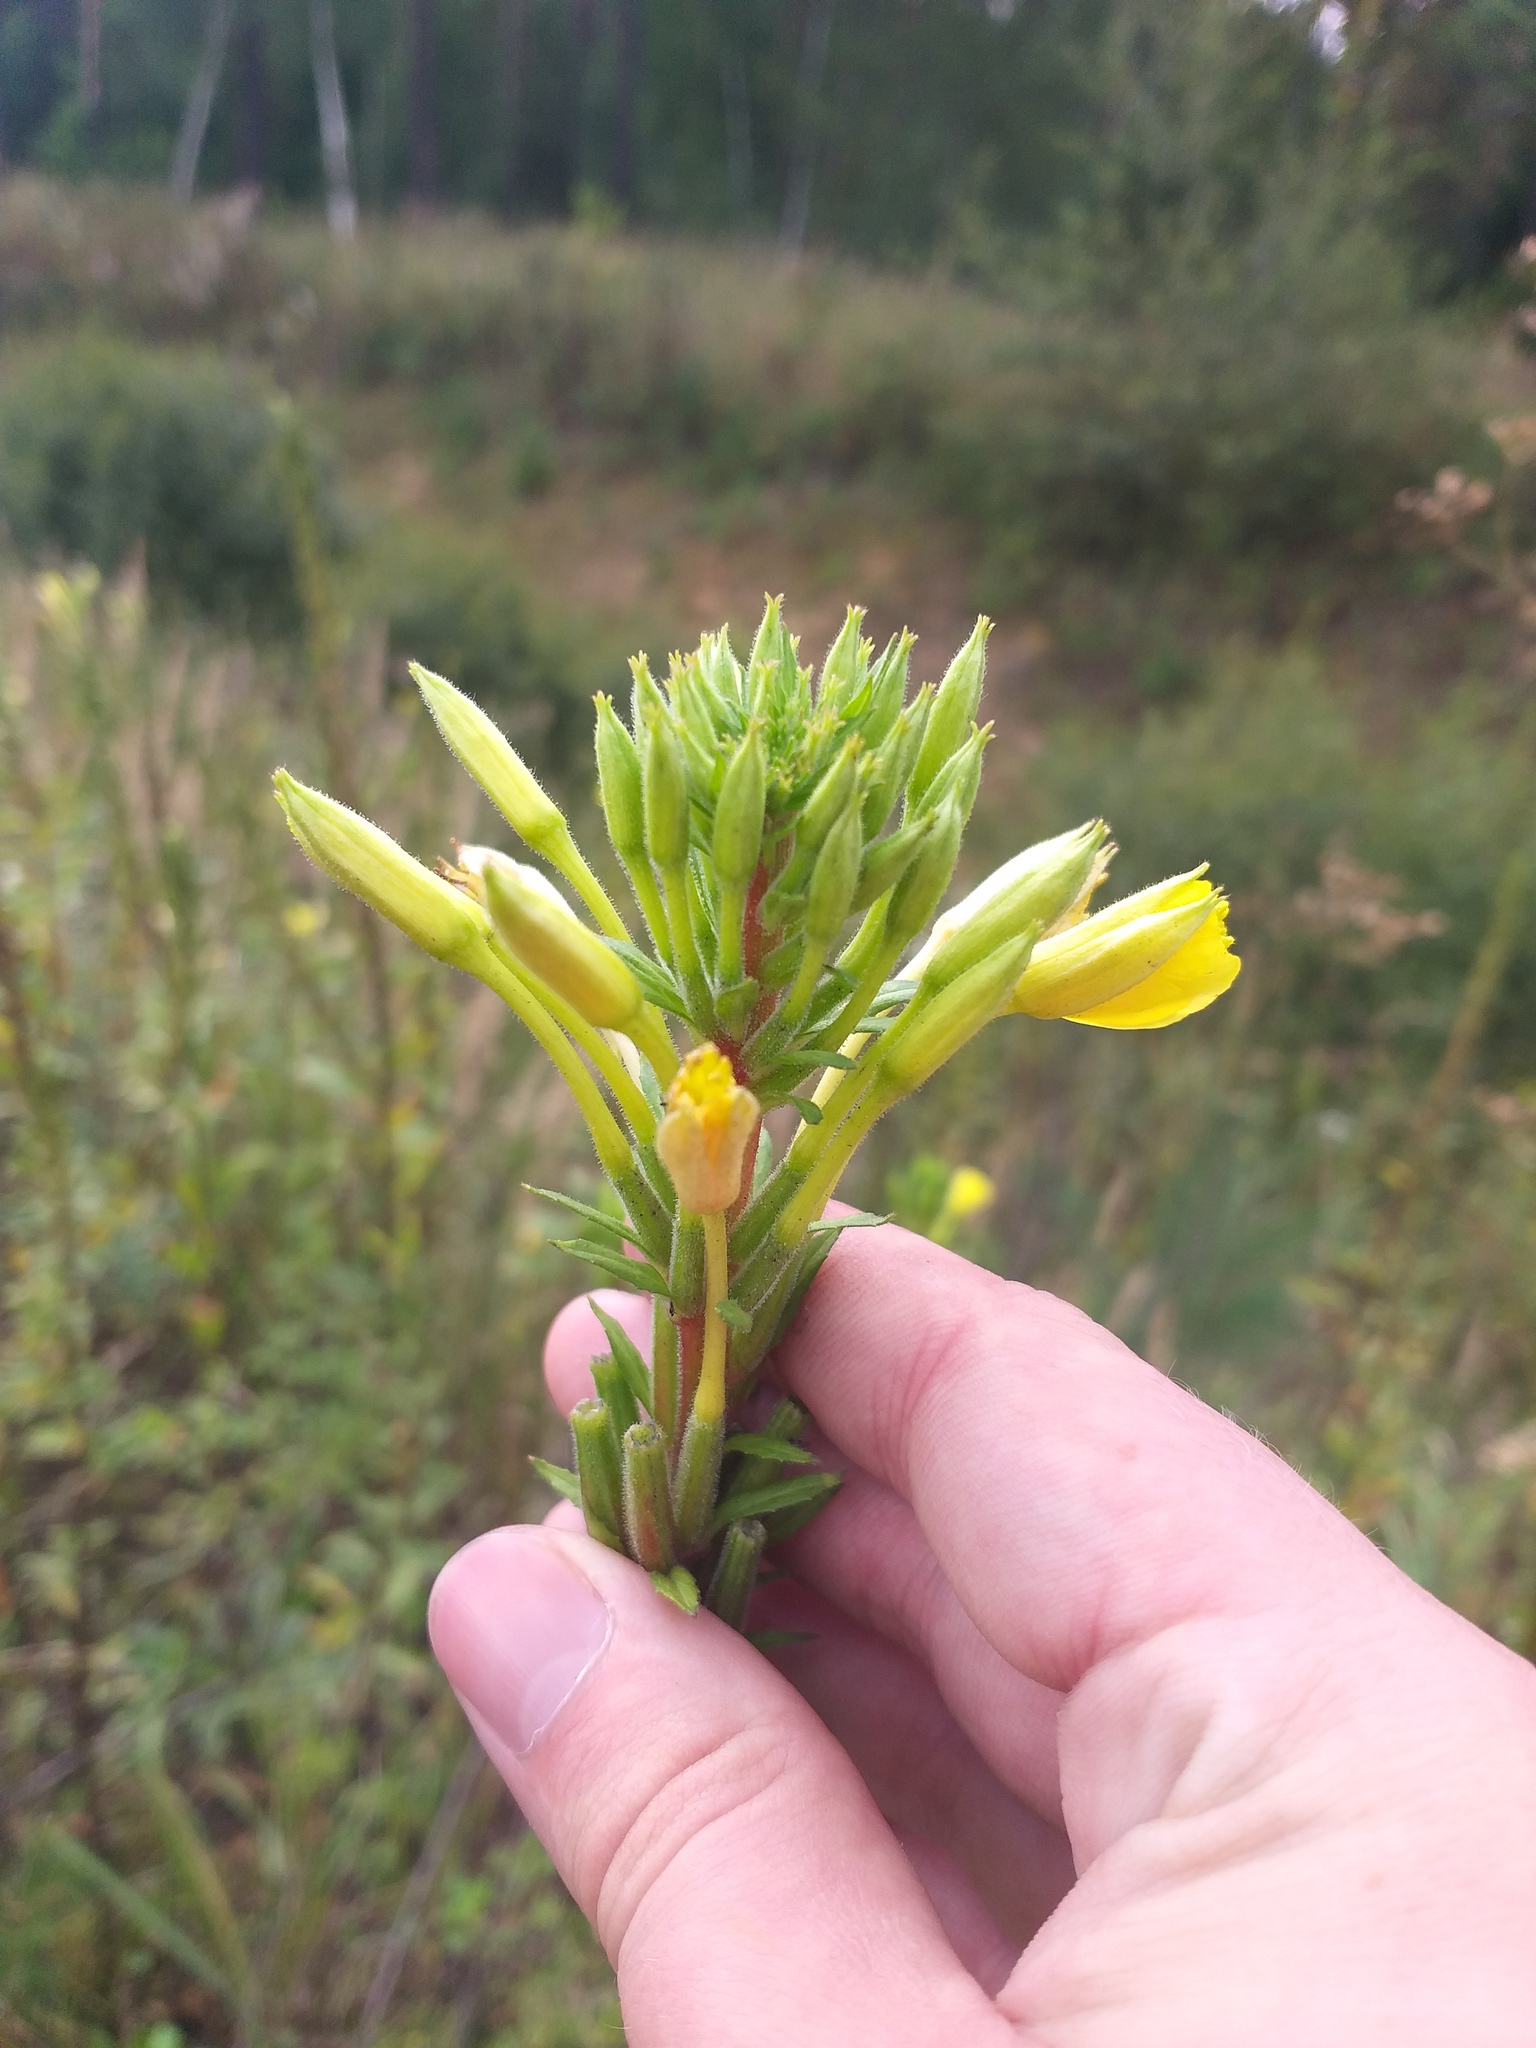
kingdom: Plantae
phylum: Tracheophyta
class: Magnoliopsida
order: Myrtales
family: Onagraceae
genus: Oenothera
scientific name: Oenothera rubricaulis
